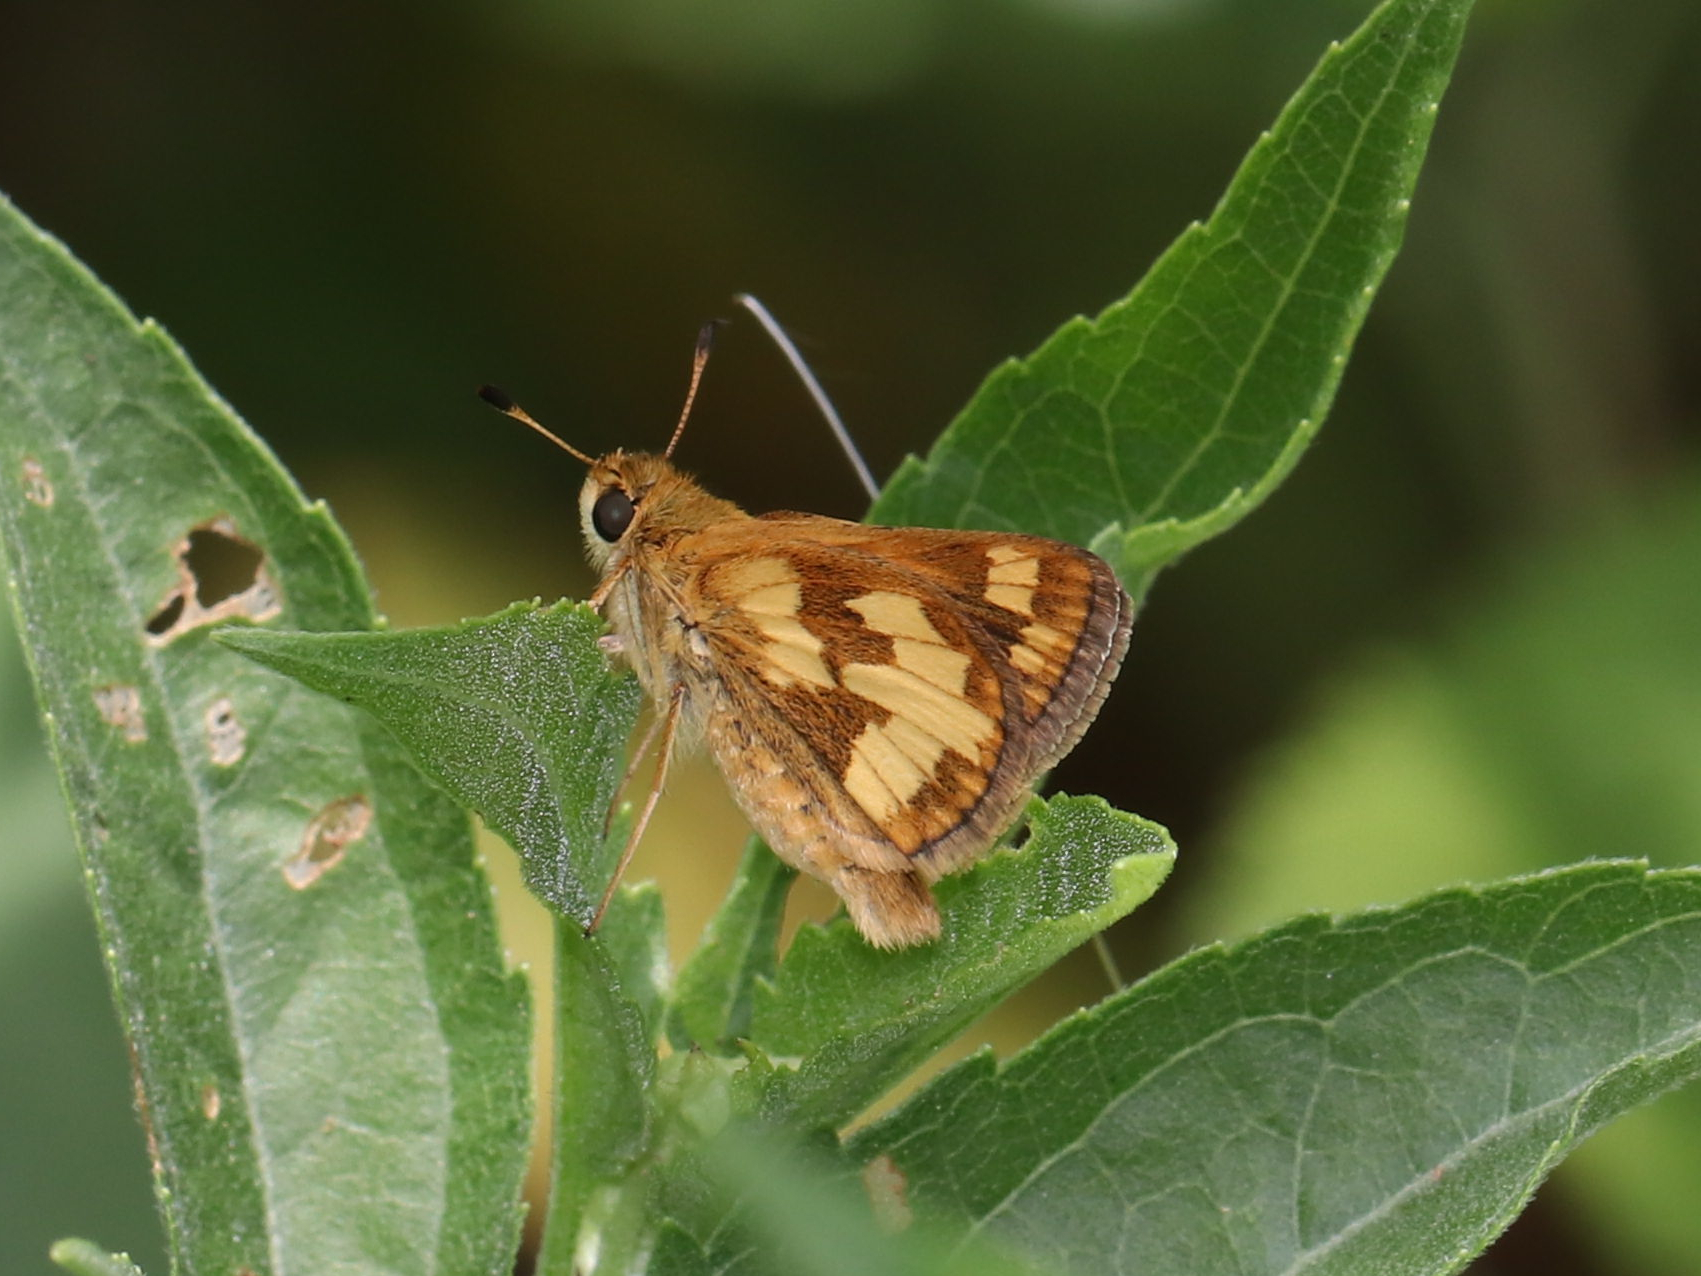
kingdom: Animalia
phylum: Arthropoda
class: Insecta
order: Lepidoptera
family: Hesperiidae
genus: Polites
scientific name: Polites coras
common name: Peck's skipper
